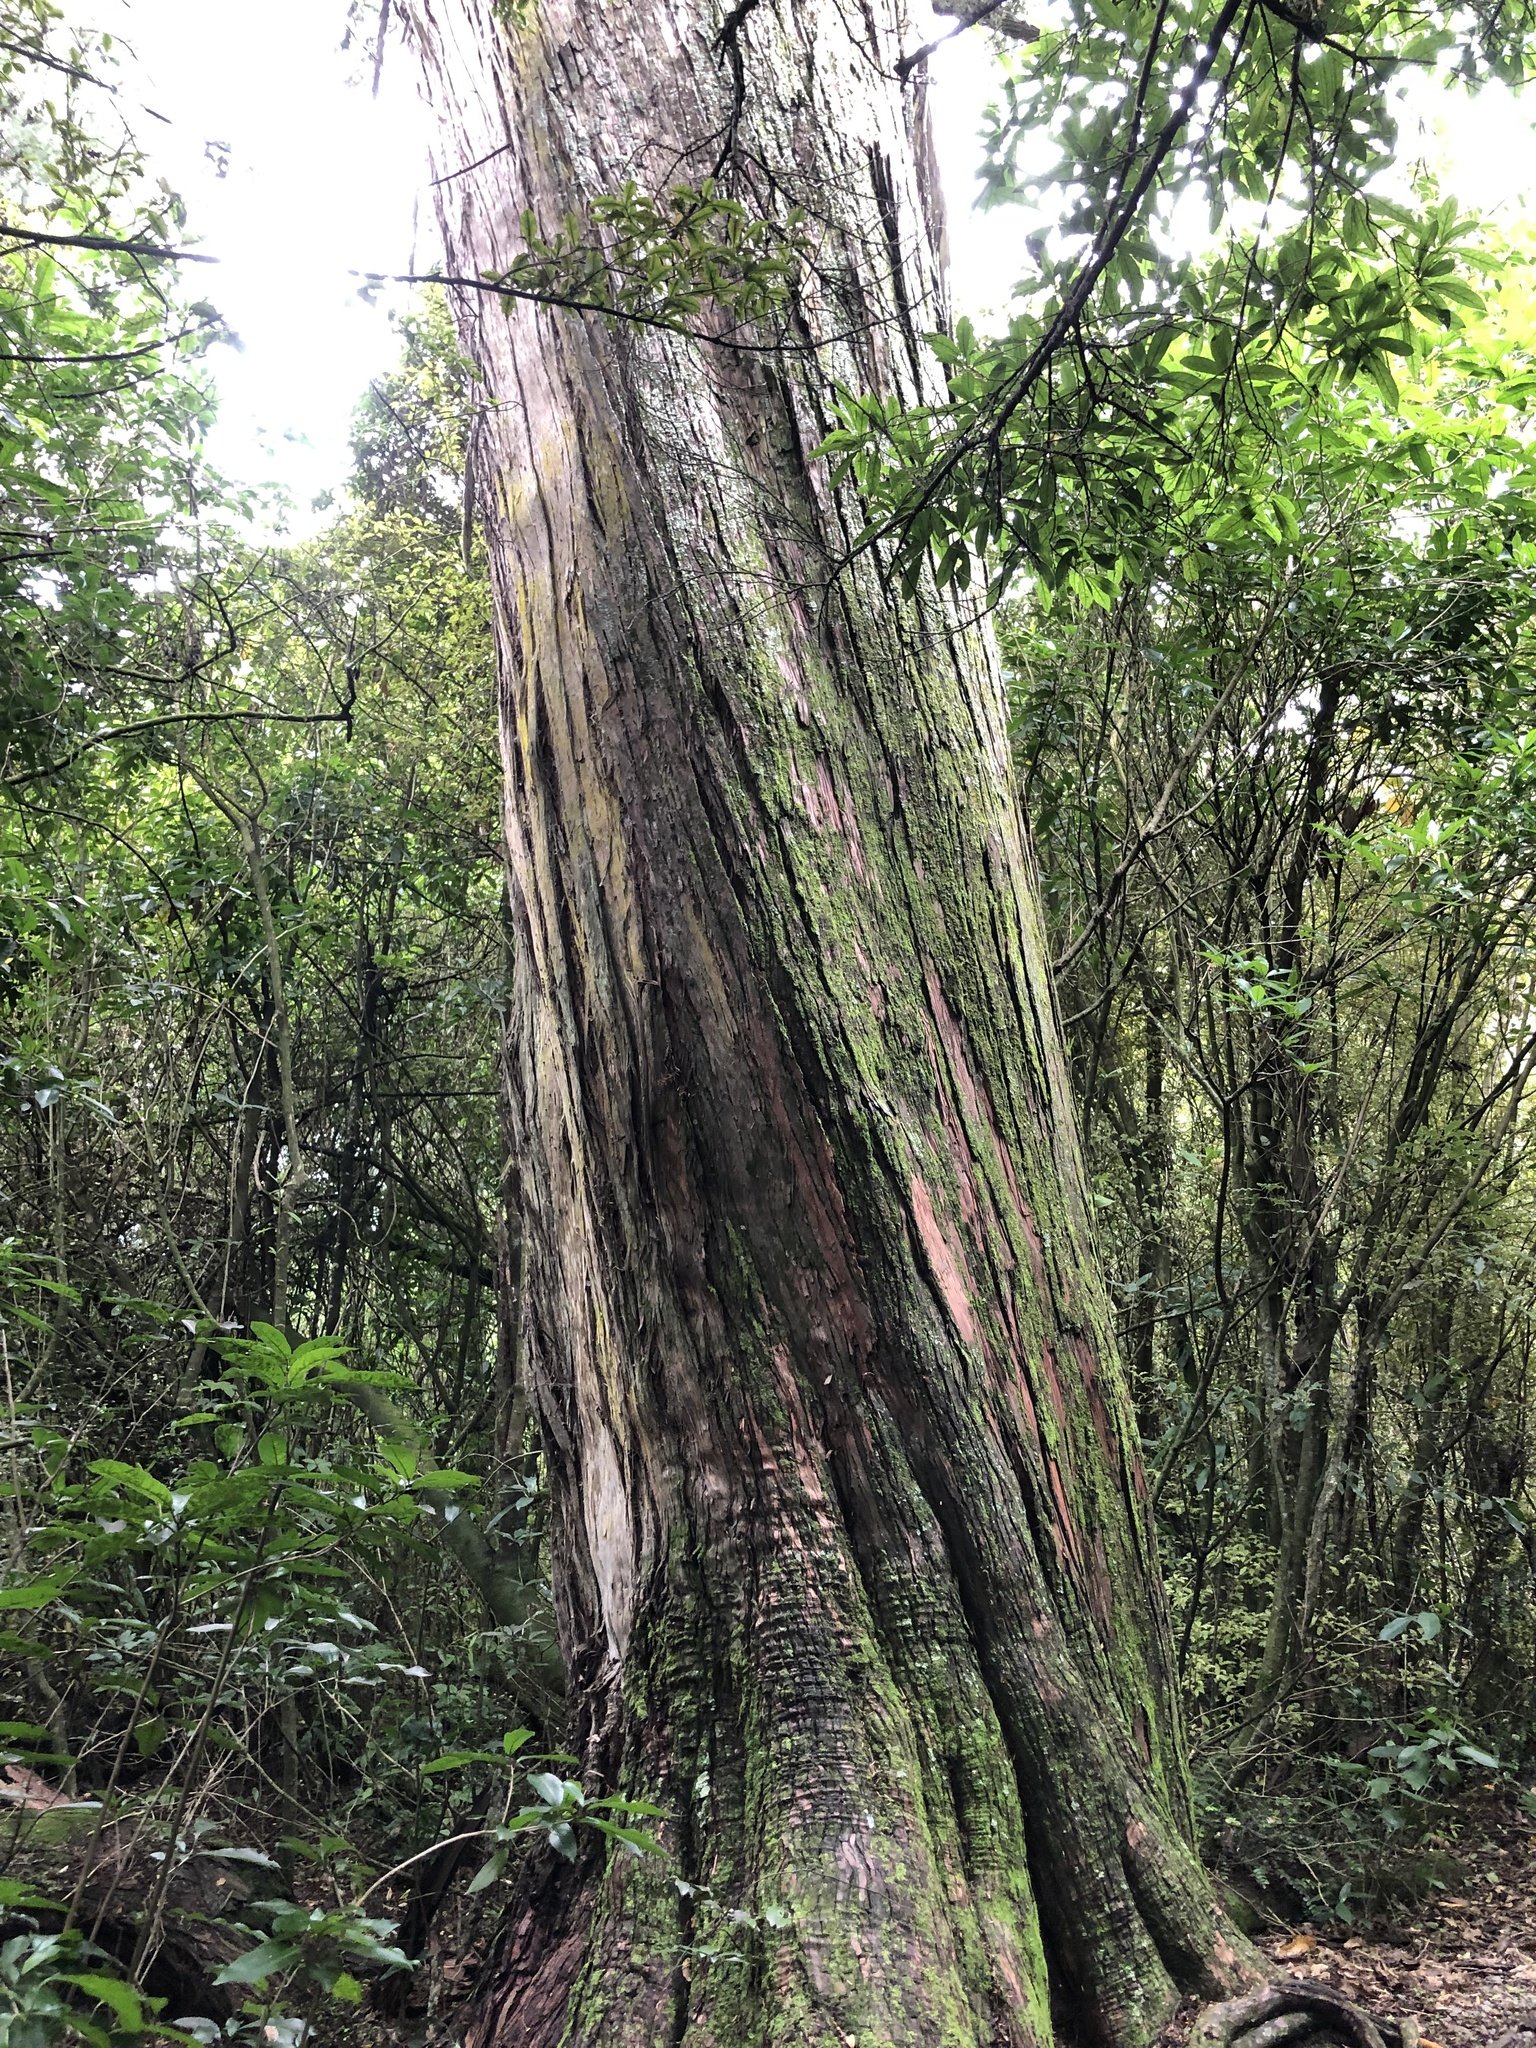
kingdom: Plantae
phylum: Tracheophyta
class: Pinopsida
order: Pinales
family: Podocarpaceae
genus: Podocarpus
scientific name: Podocarpus totara
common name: Totara
